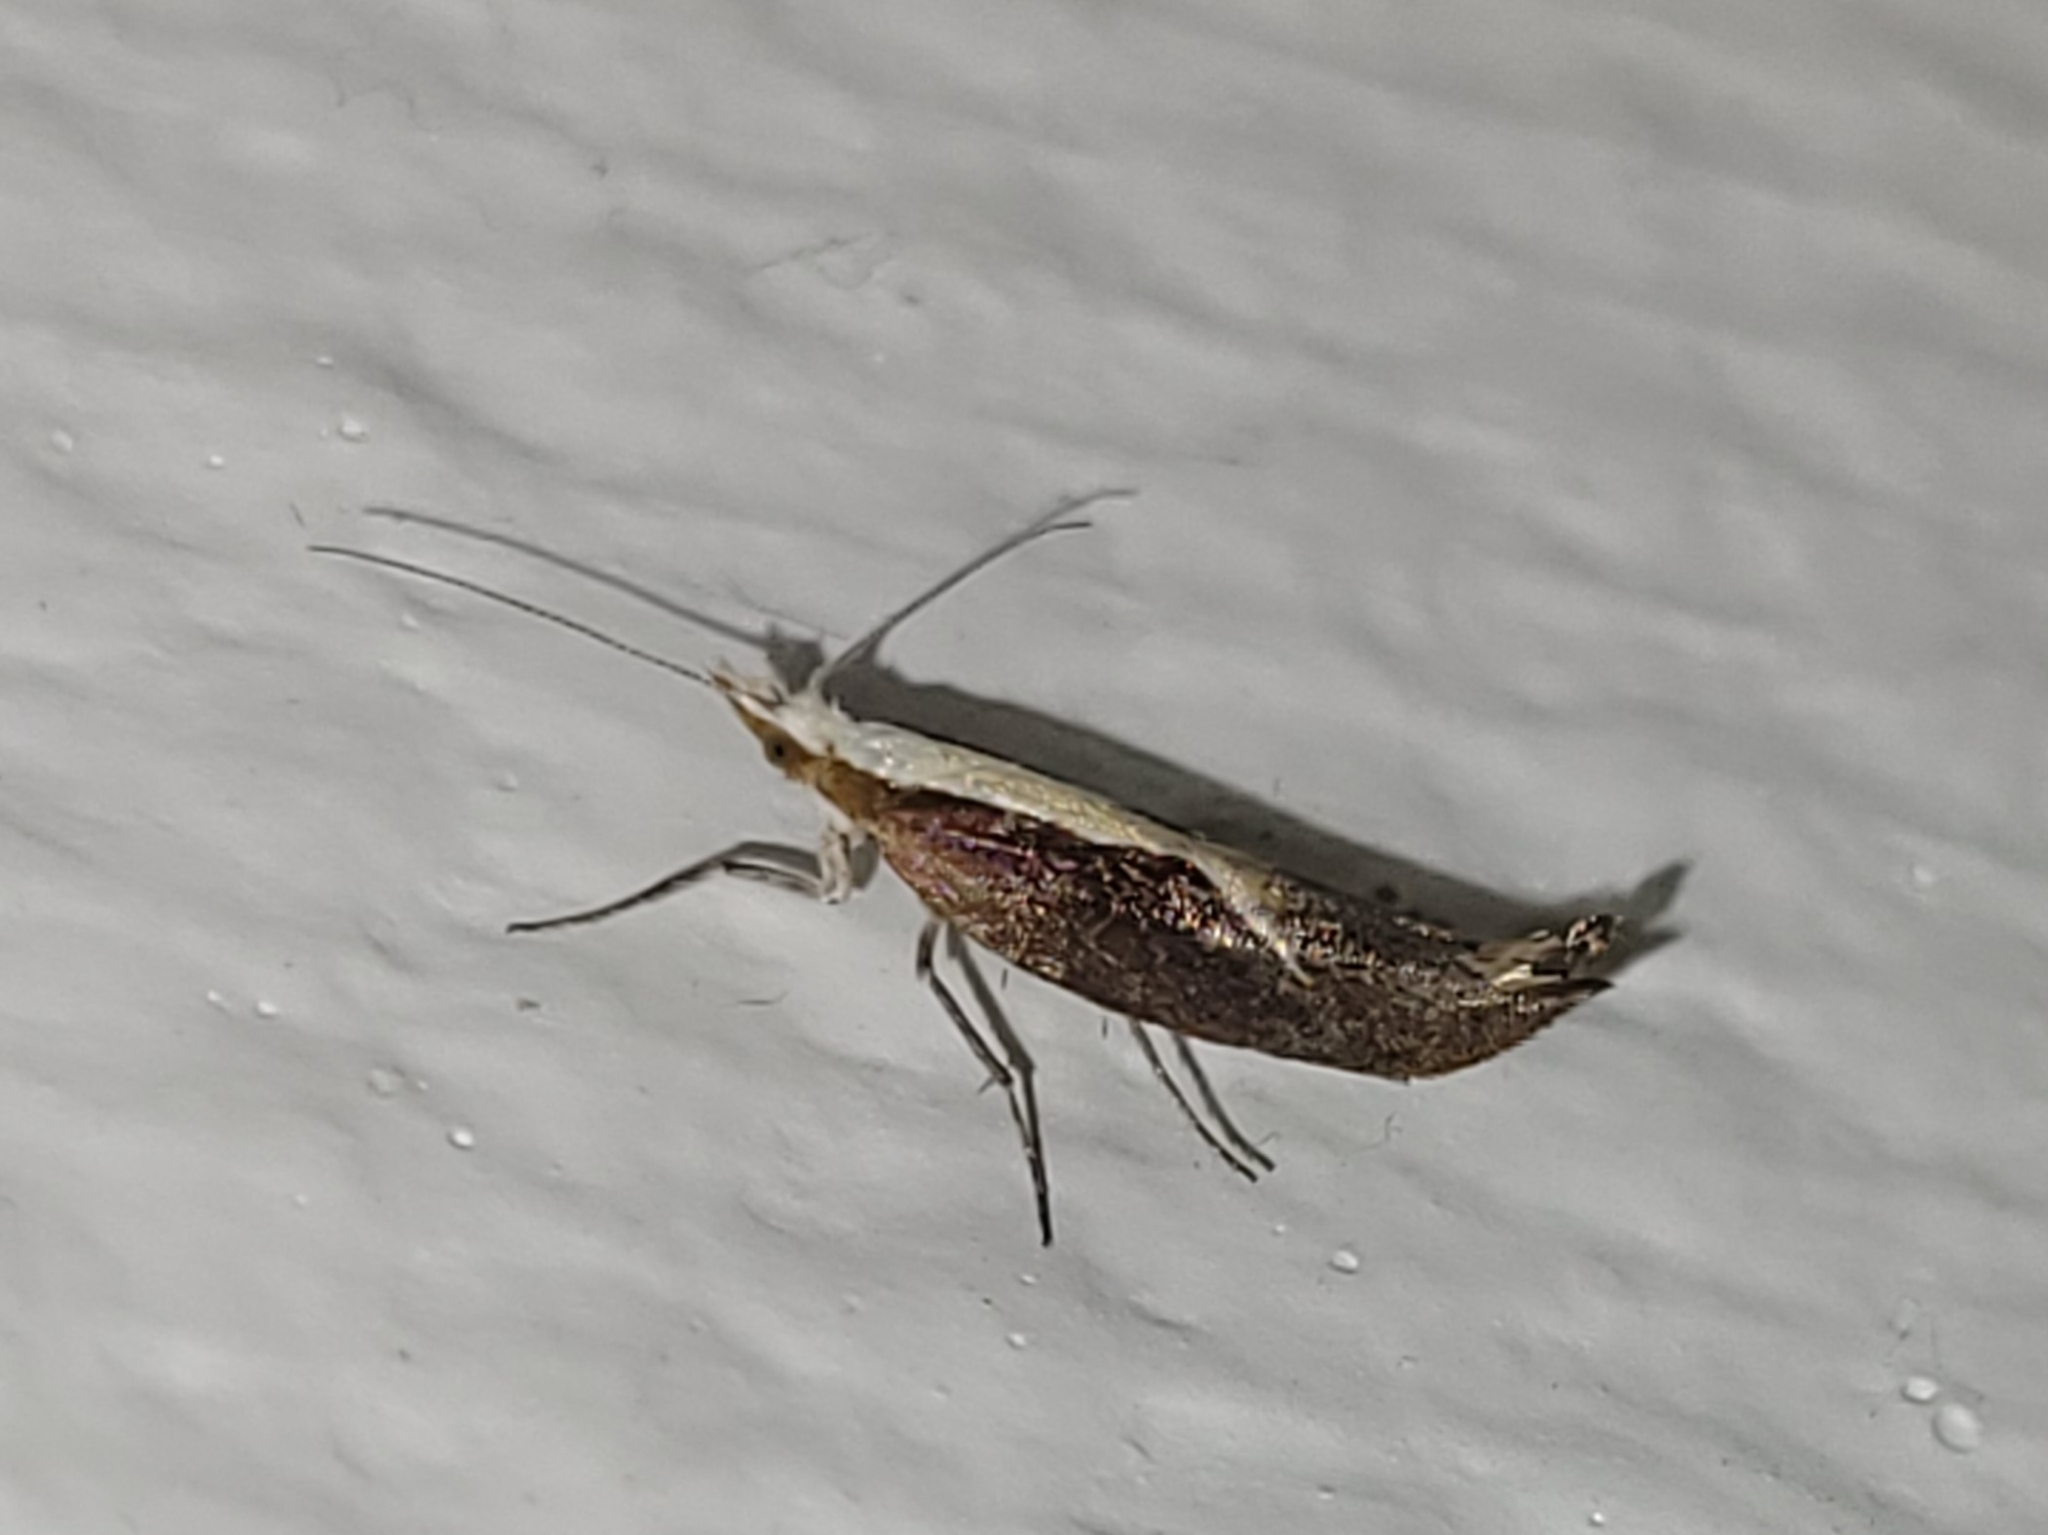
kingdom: Animalia
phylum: Arthropoda
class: Insecta
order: Lepidoptera
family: Ypsolophidae
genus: Ypsolopha
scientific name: Ypsolopha dentella
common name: Honeysuckle moth
